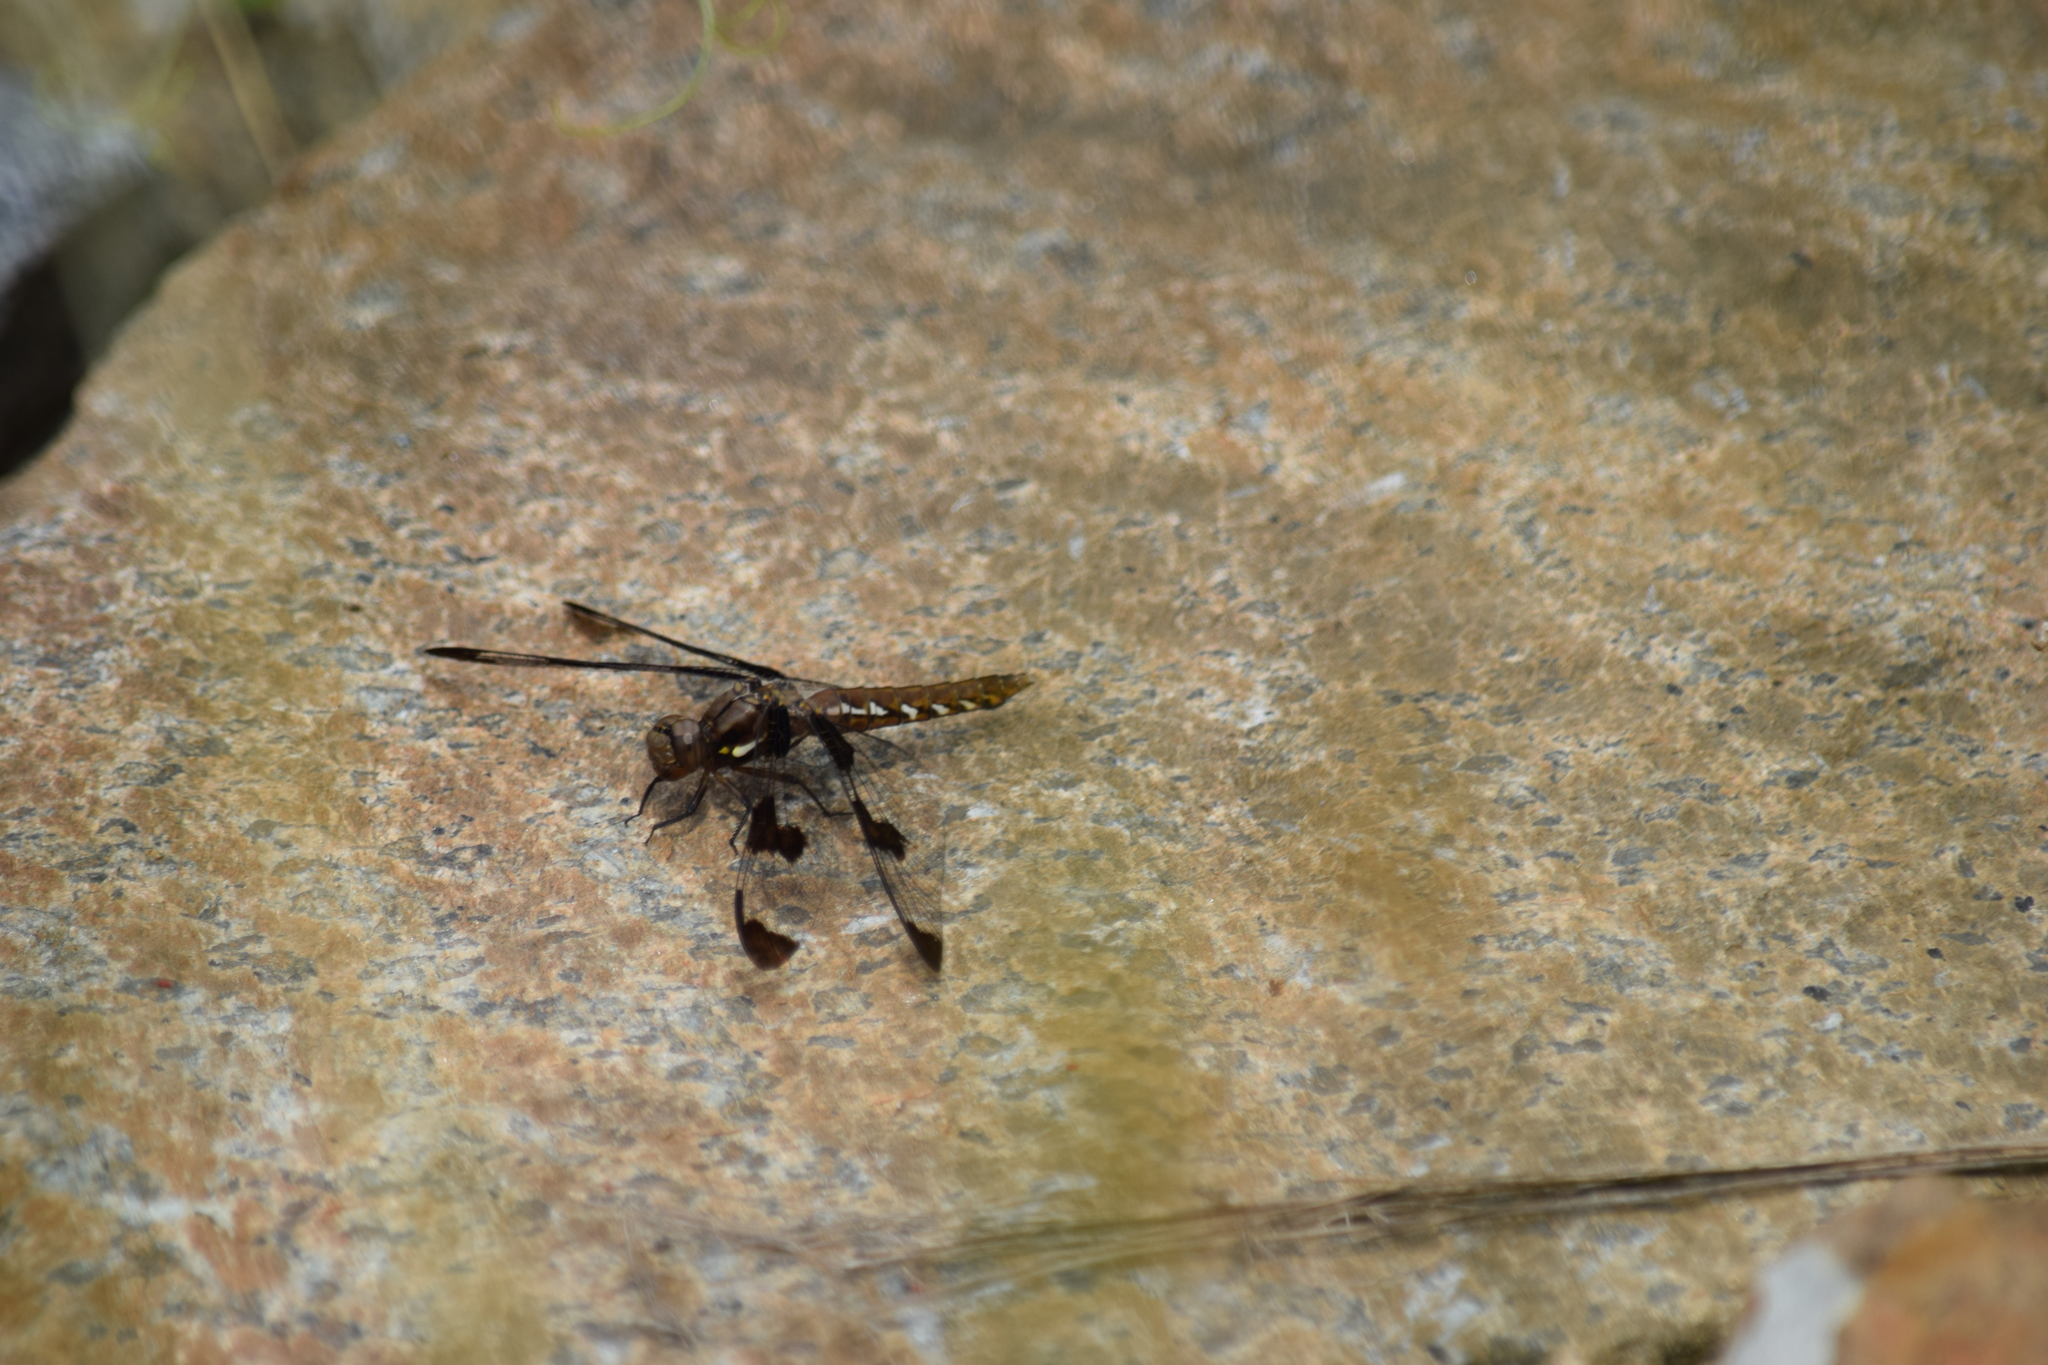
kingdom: Animalia
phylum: Arthropoda
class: Insecta
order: Odonata
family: Libellulidae
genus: Plathemis
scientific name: Plathemis lydia
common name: Common whitetail
